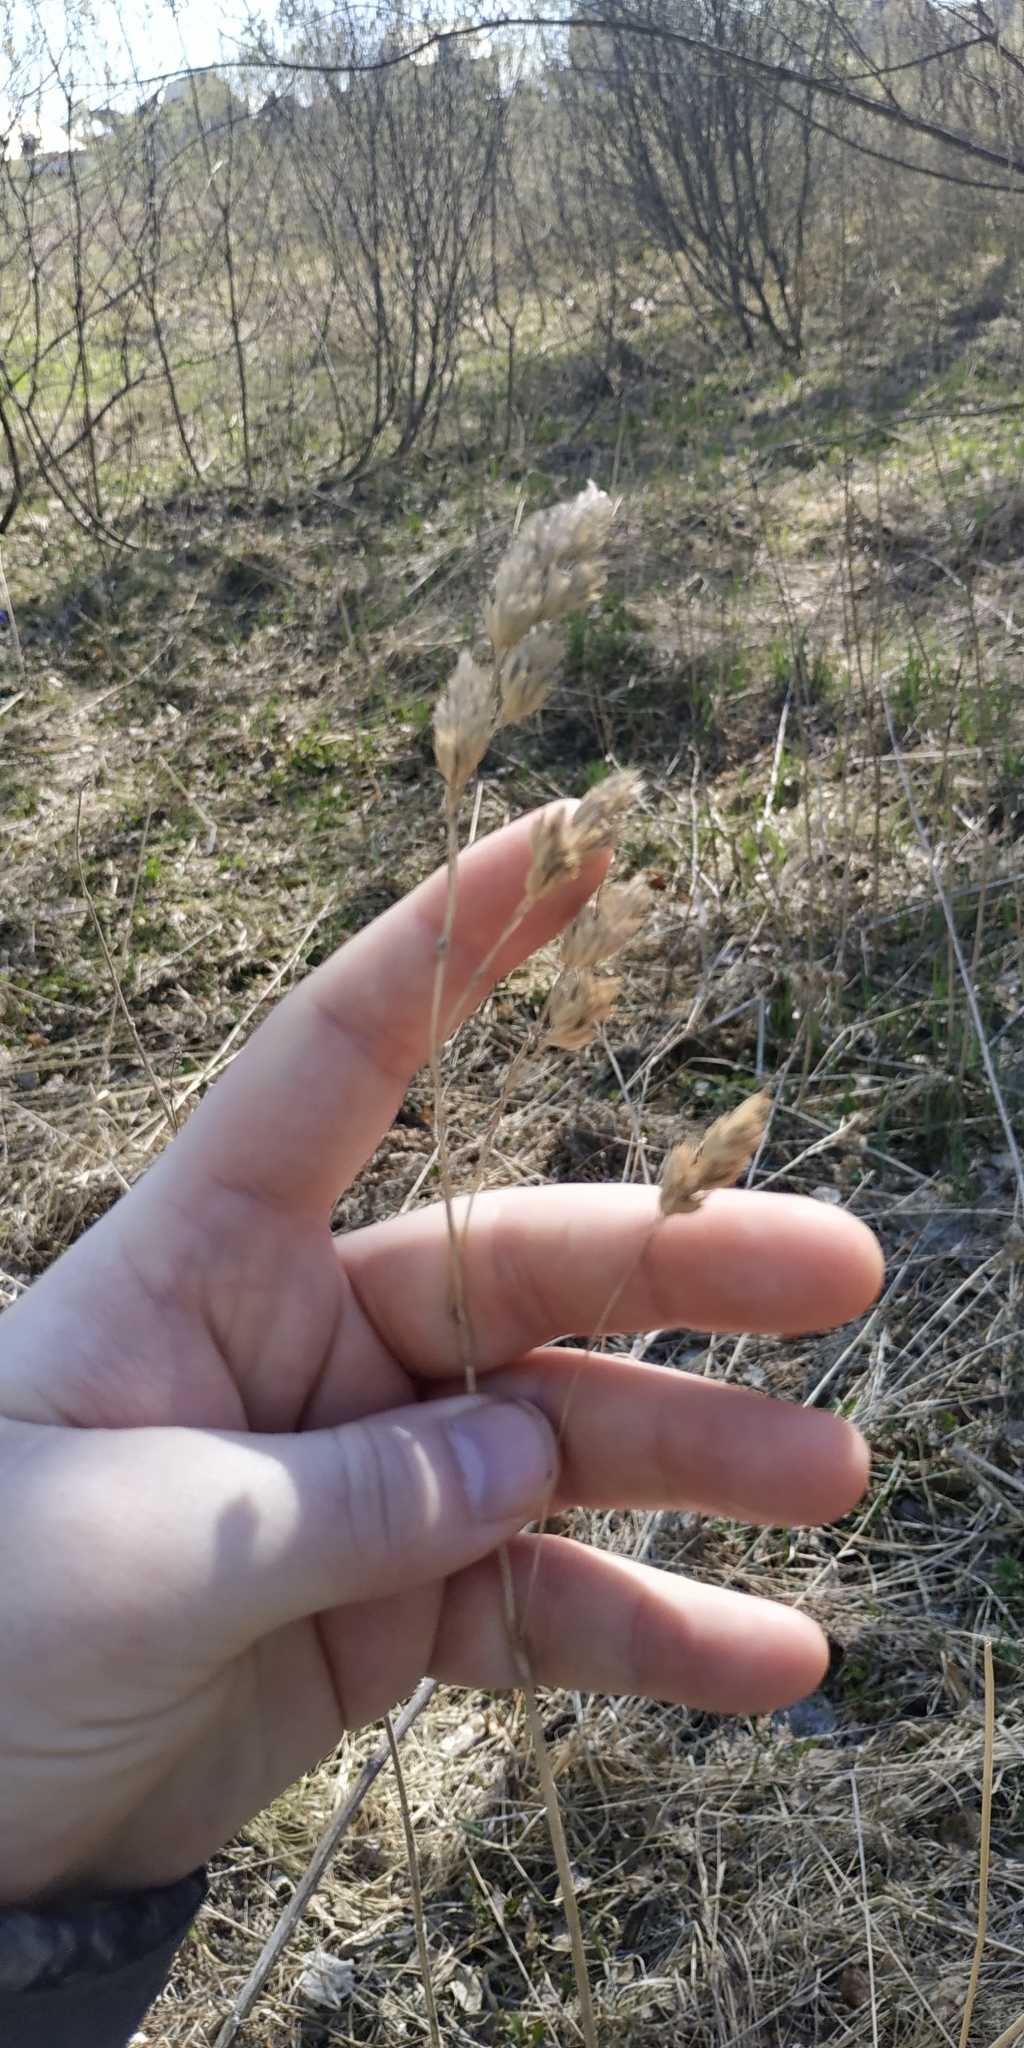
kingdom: Plantae
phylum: Tracheophyta
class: Liliopsida
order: Poales
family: Poaceae
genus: Dactylis
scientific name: Dactylis glomerata
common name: Orchardgrass
